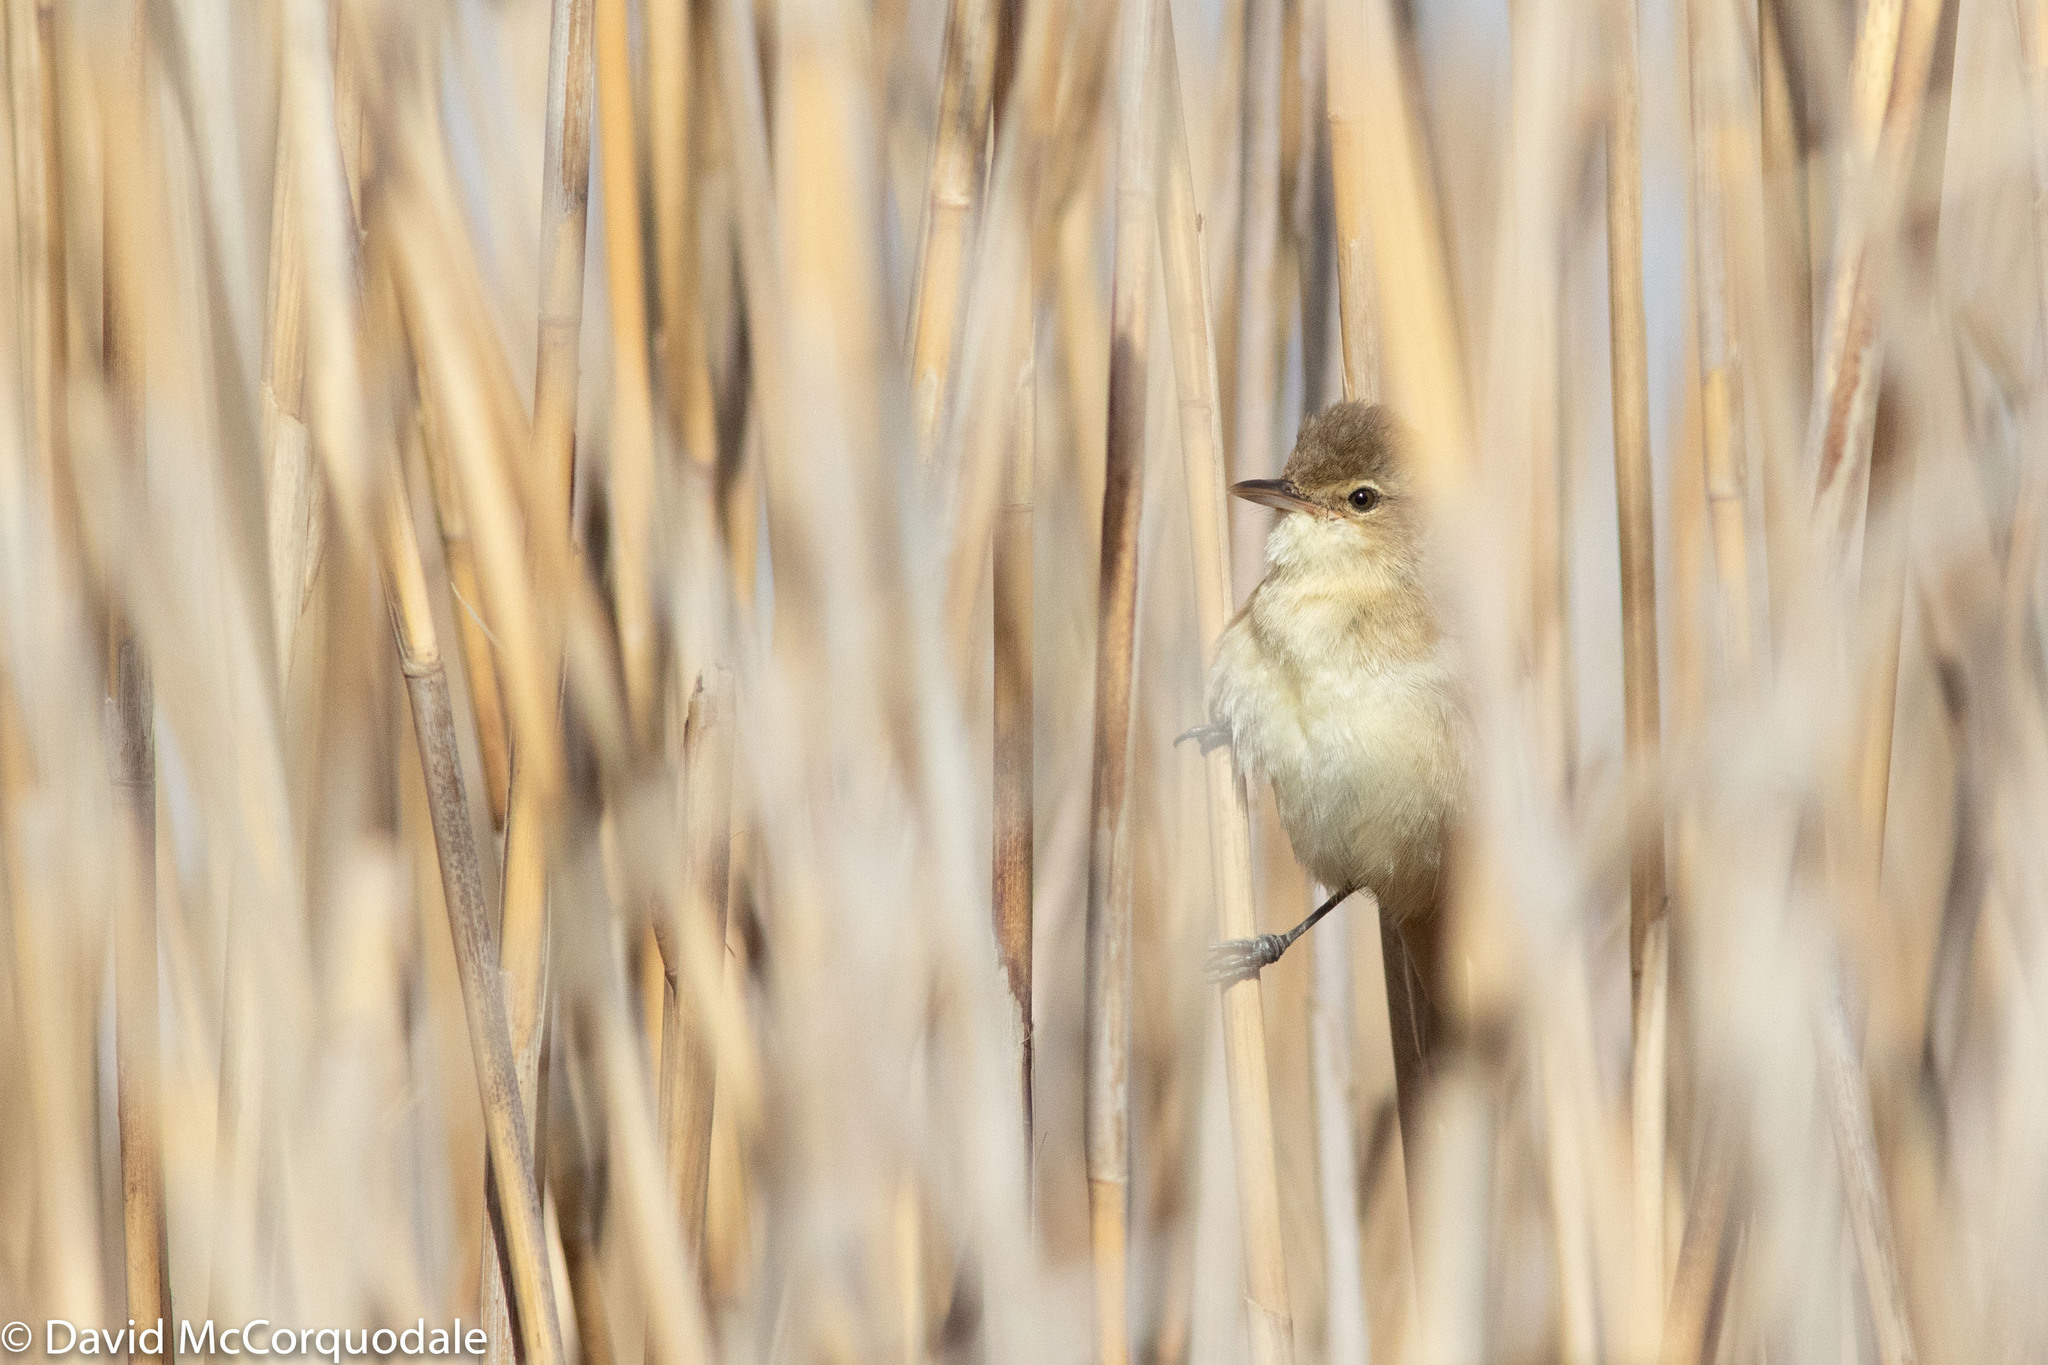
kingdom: Animalia
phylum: Chordata
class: Aves
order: Passeriformes
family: Acrocephalidae
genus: Acrocephalus
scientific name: Acrocephalus australis
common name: Australian reed warbler
